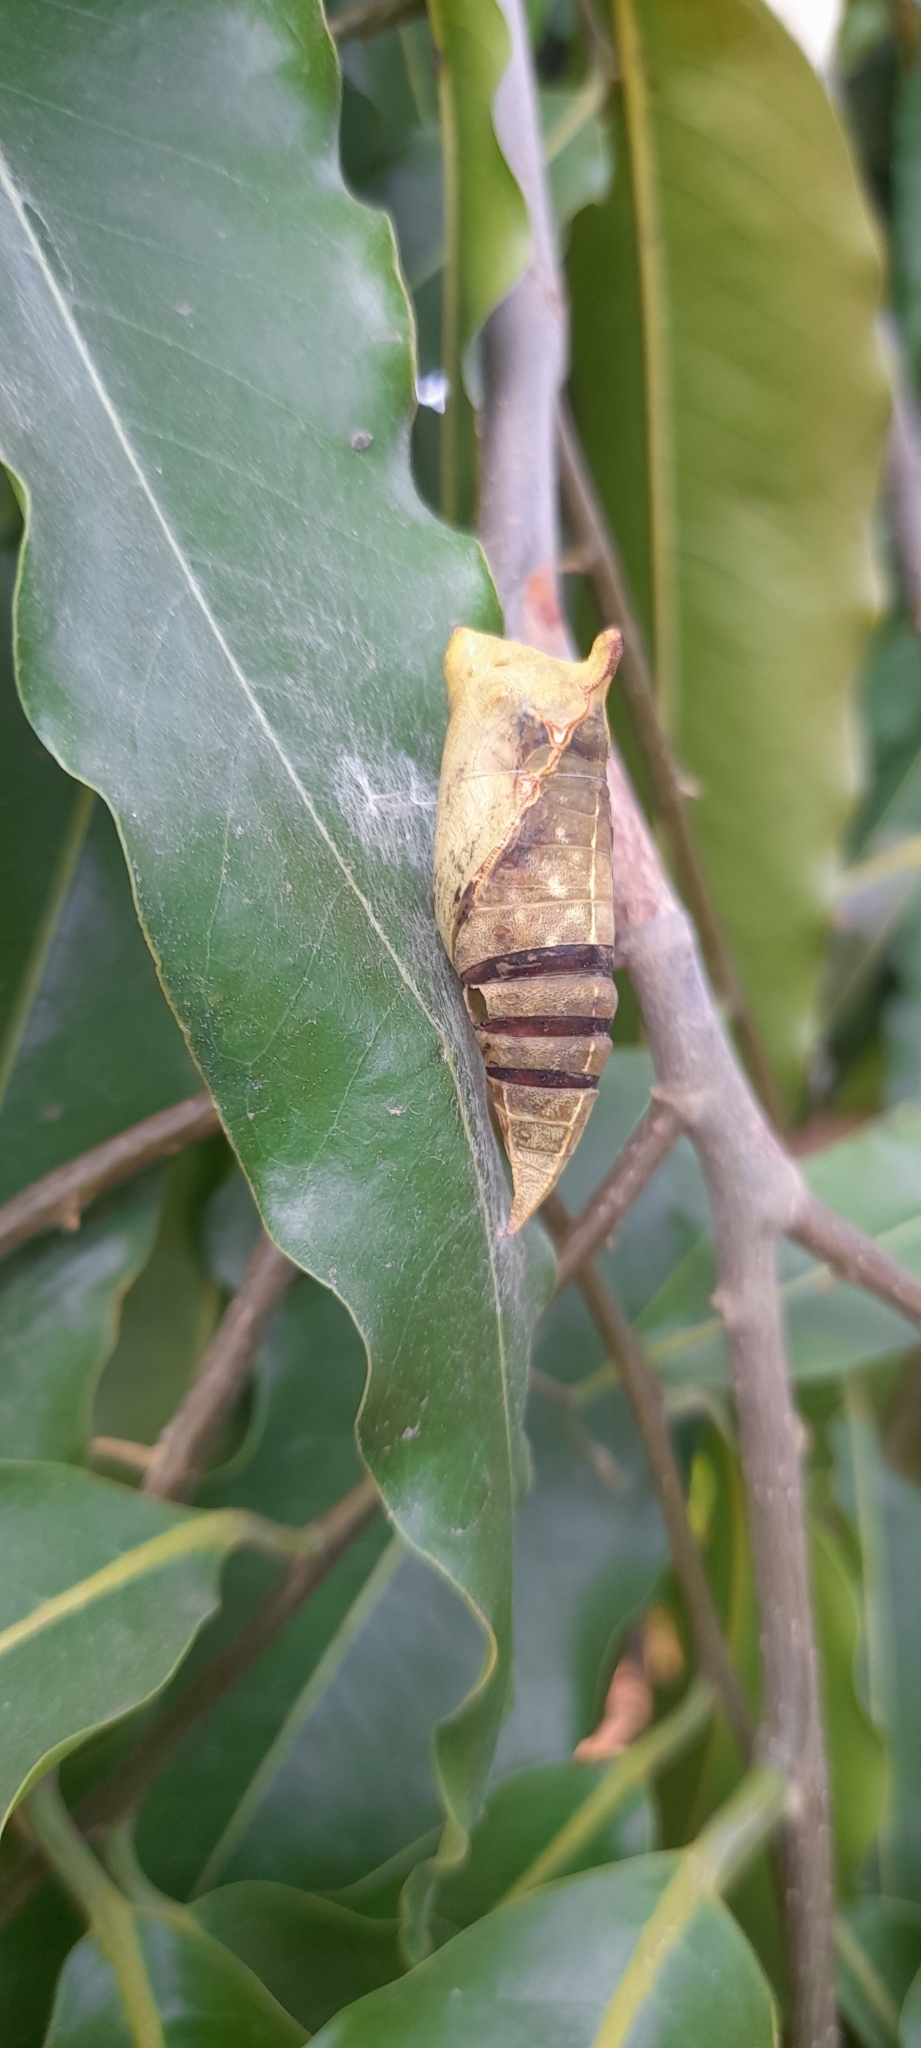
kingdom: Animalia
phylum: Arthropoda
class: Insecta
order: Lepidoptera
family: Papilionidae
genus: Graphium
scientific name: Graphium doson
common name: Common jay
